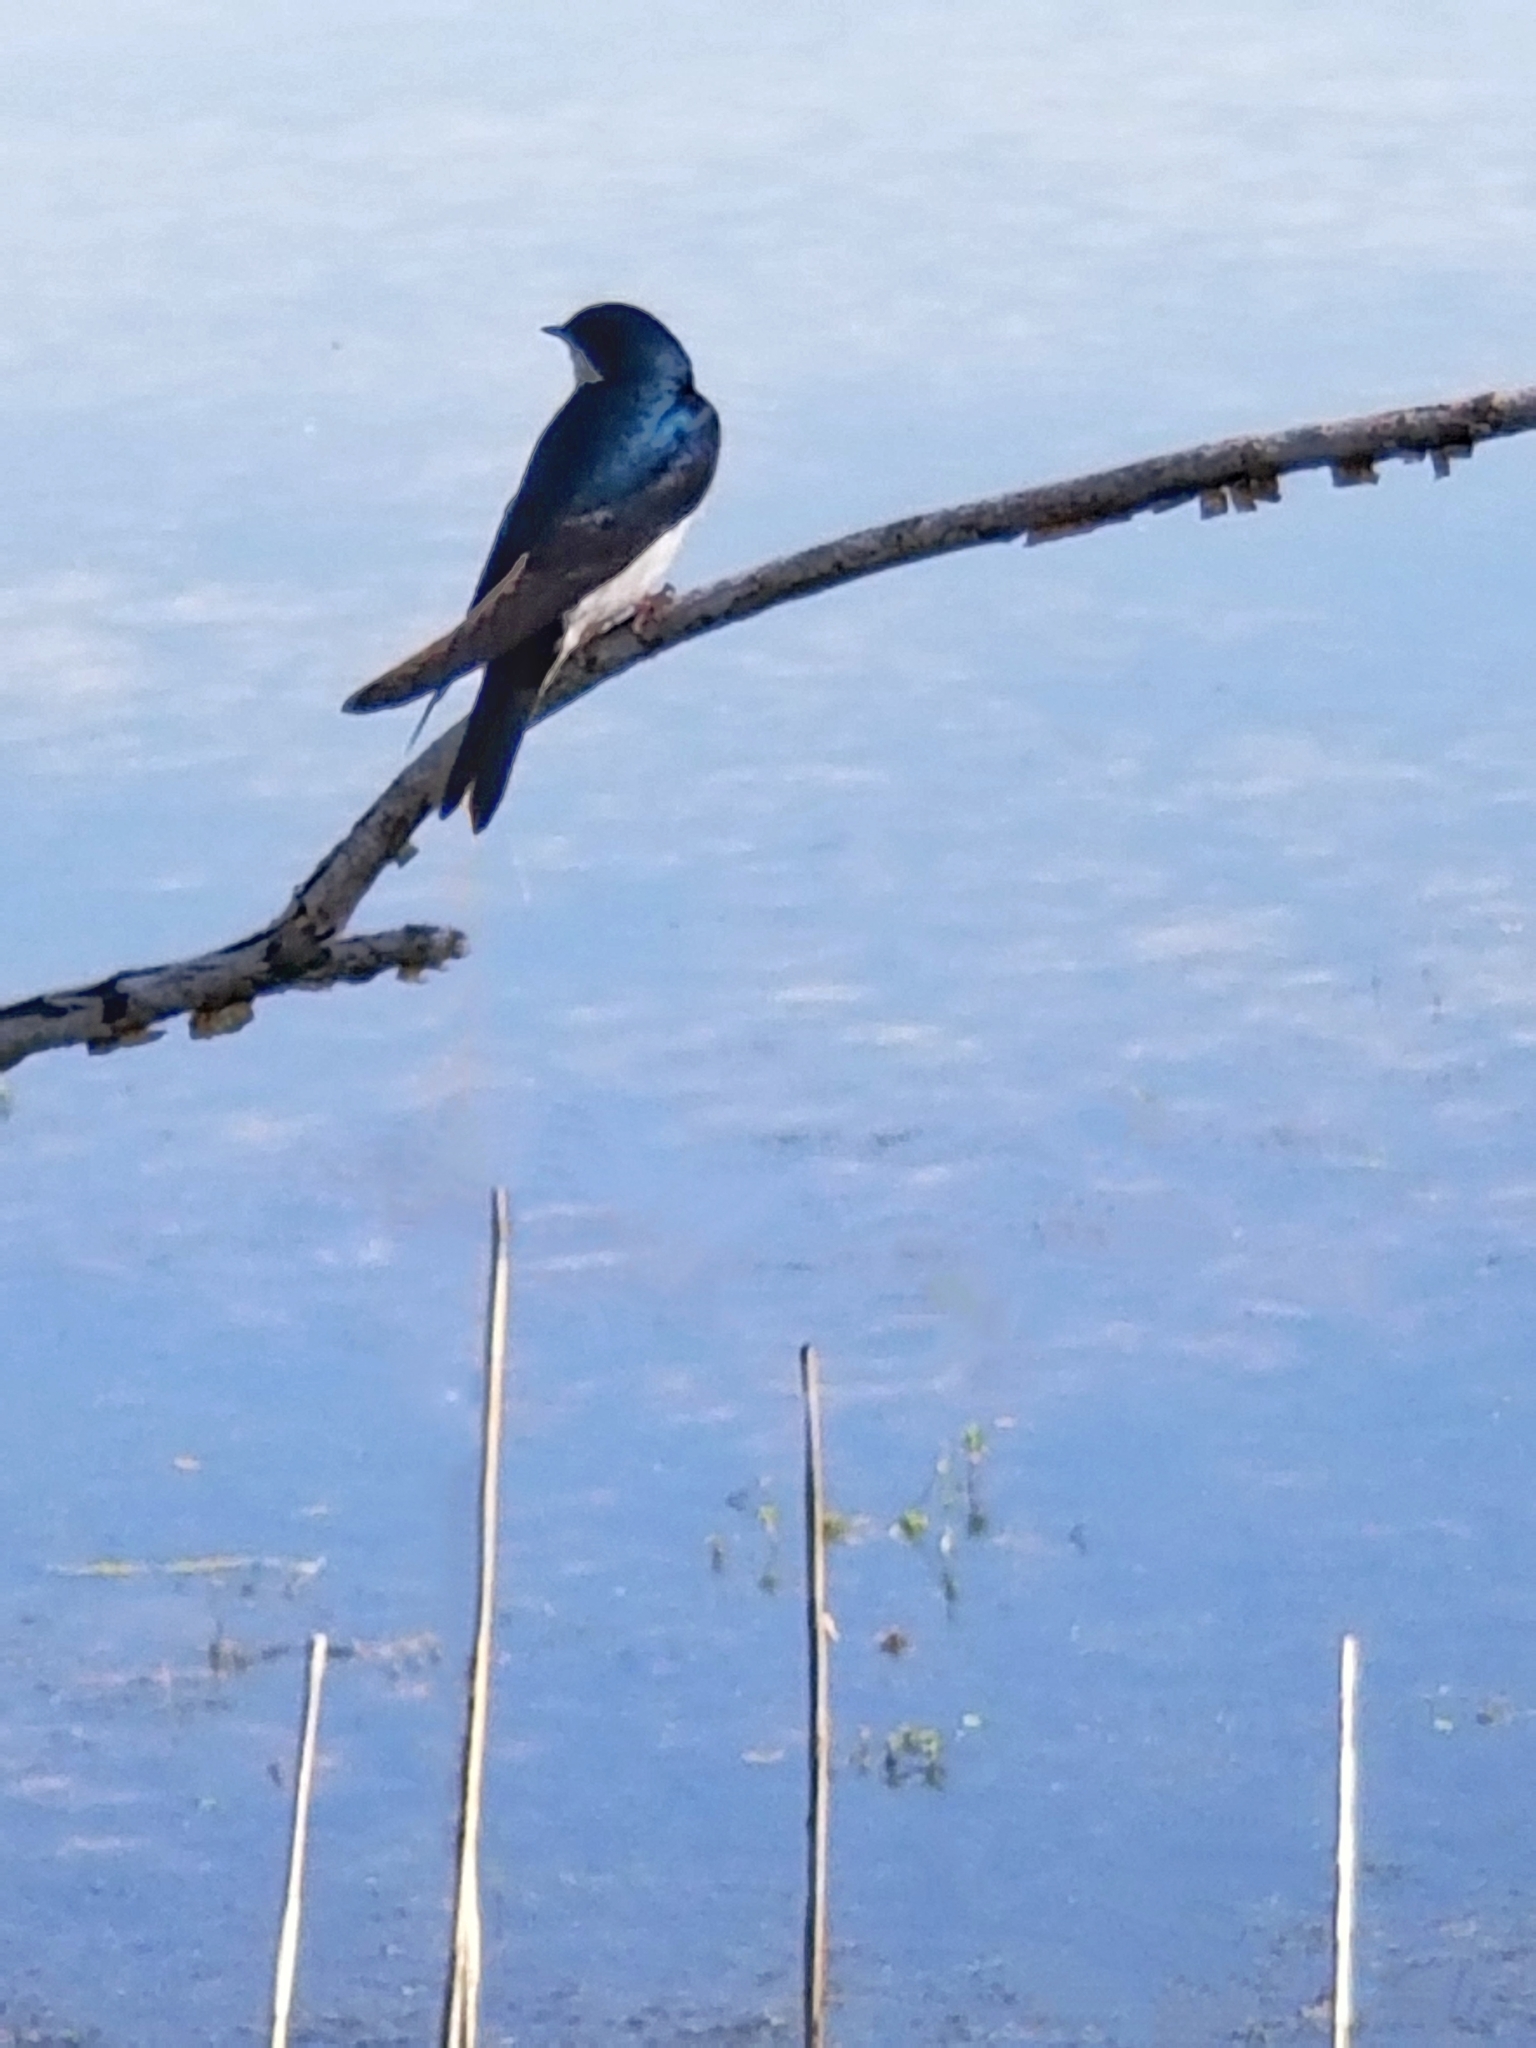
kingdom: Animalia
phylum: Chordata
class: Aves
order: Passeriformes
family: Hirundinidae
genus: Tachycineta
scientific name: Tachycineta bicolor
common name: Tree swallow
